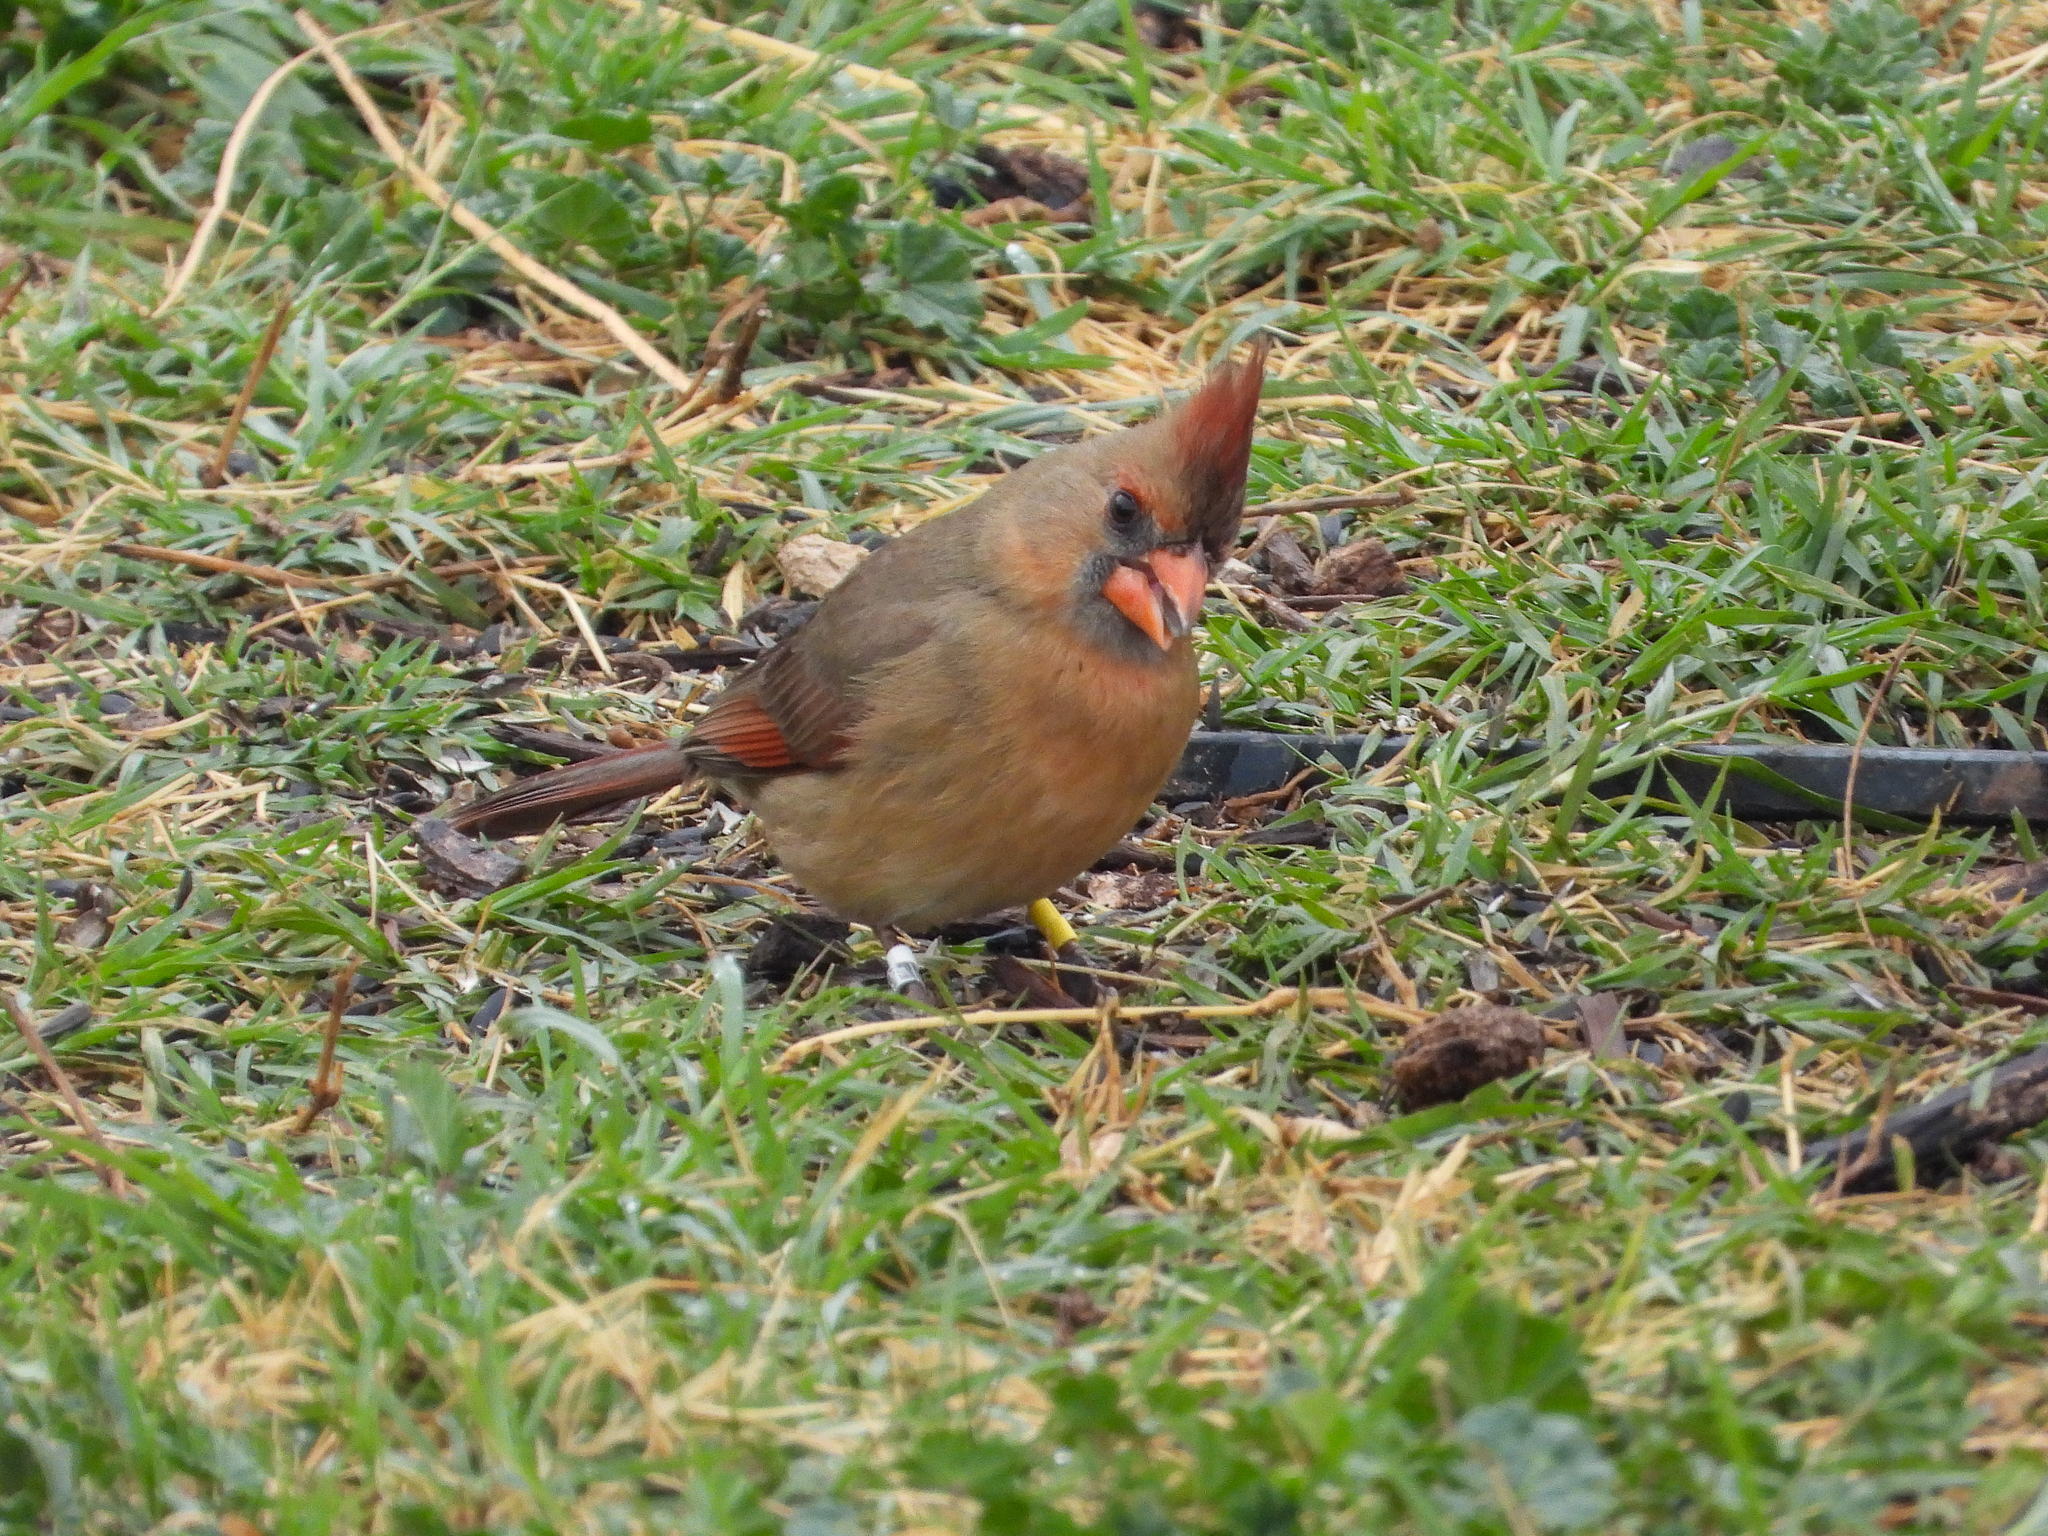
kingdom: Animalia
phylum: Chordata
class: Aves
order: Passeriformes
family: Cardinalidae
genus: Cardinalis
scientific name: Cardinalis cardinalis
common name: Northern cardinal
